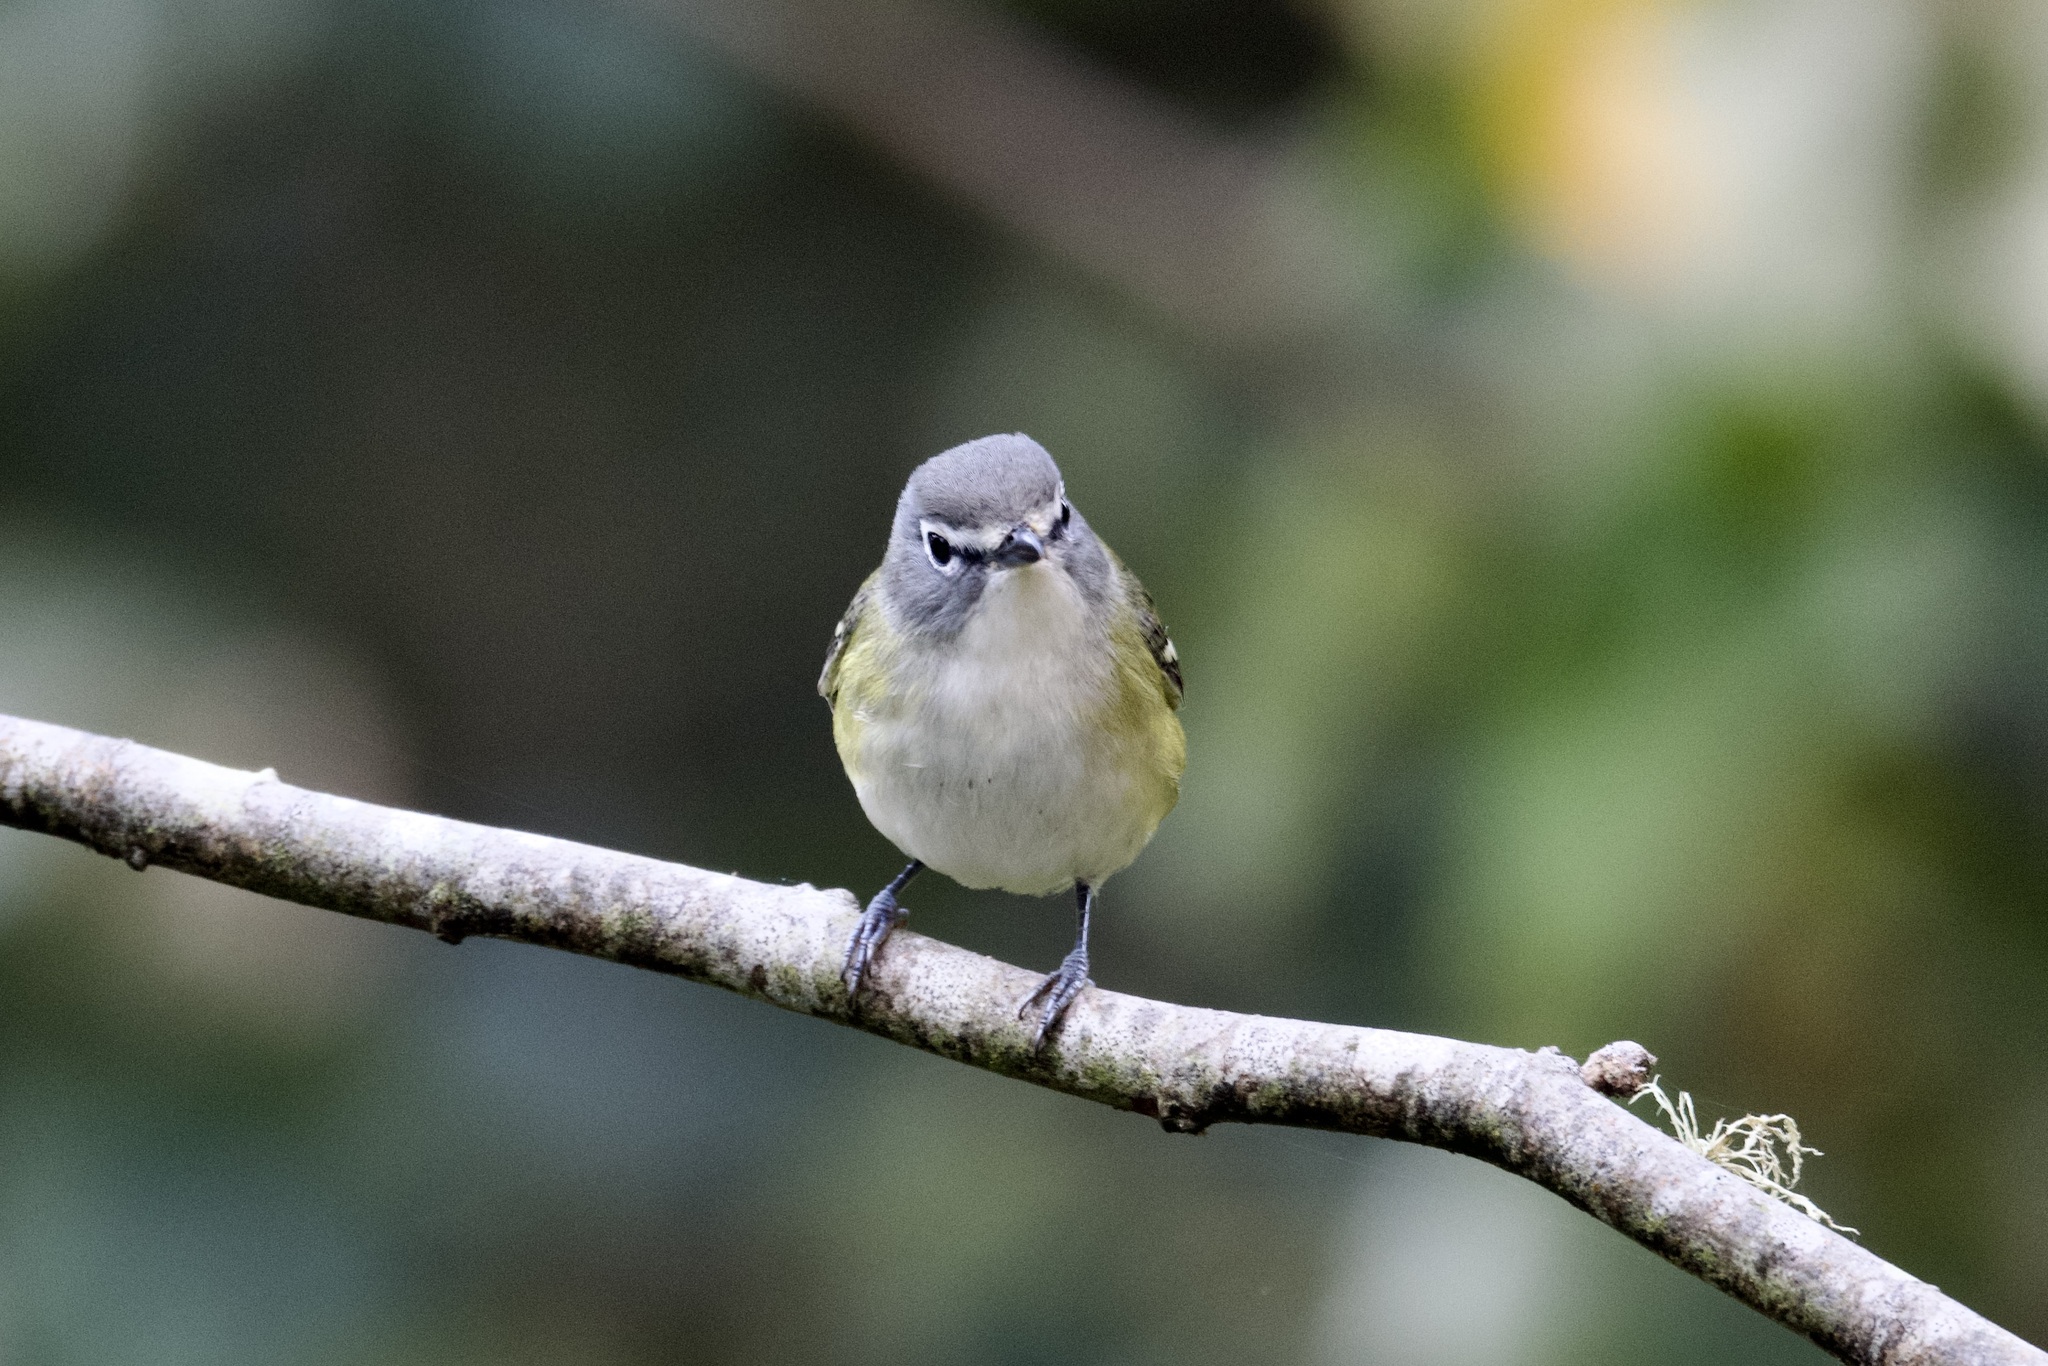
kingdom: Animalia
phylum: Chordata
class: Aves
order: Passeriformes
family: Vireonidae
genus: Vireo
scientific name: Vireo solitarius
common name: Blue-headed vireo
